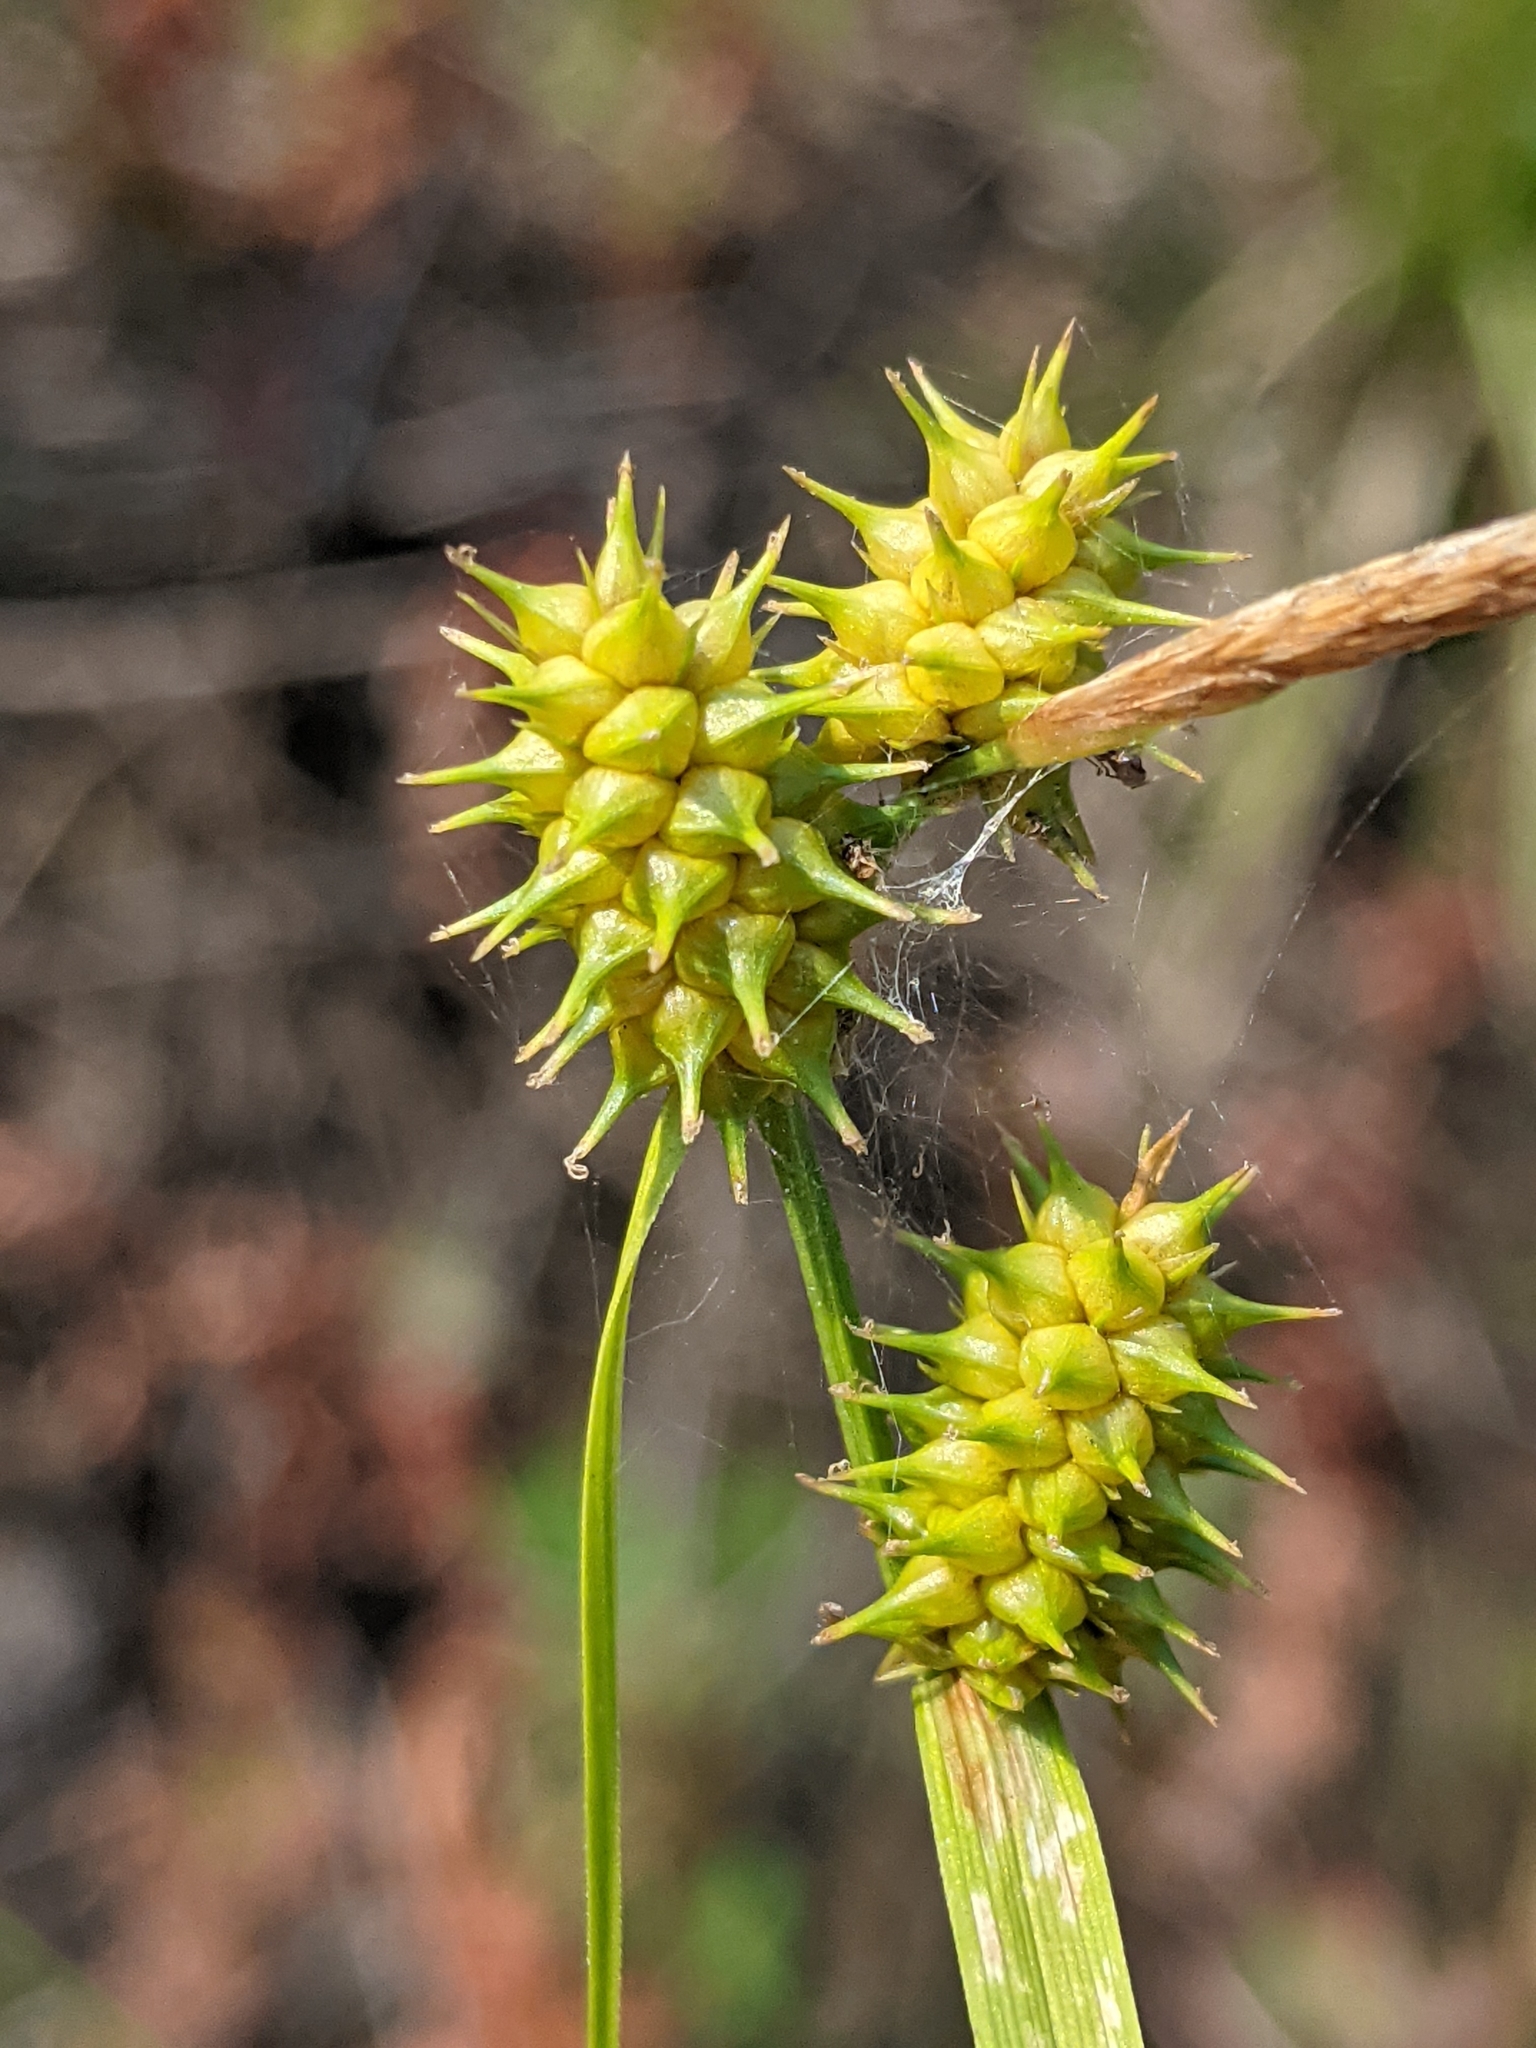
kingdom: Plantae
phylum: Tracheophyta
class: Liliopsida
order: Poales
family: Cyperaceae
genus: Carex
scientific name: Carex cryptolepis
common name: Northeastern sedge
